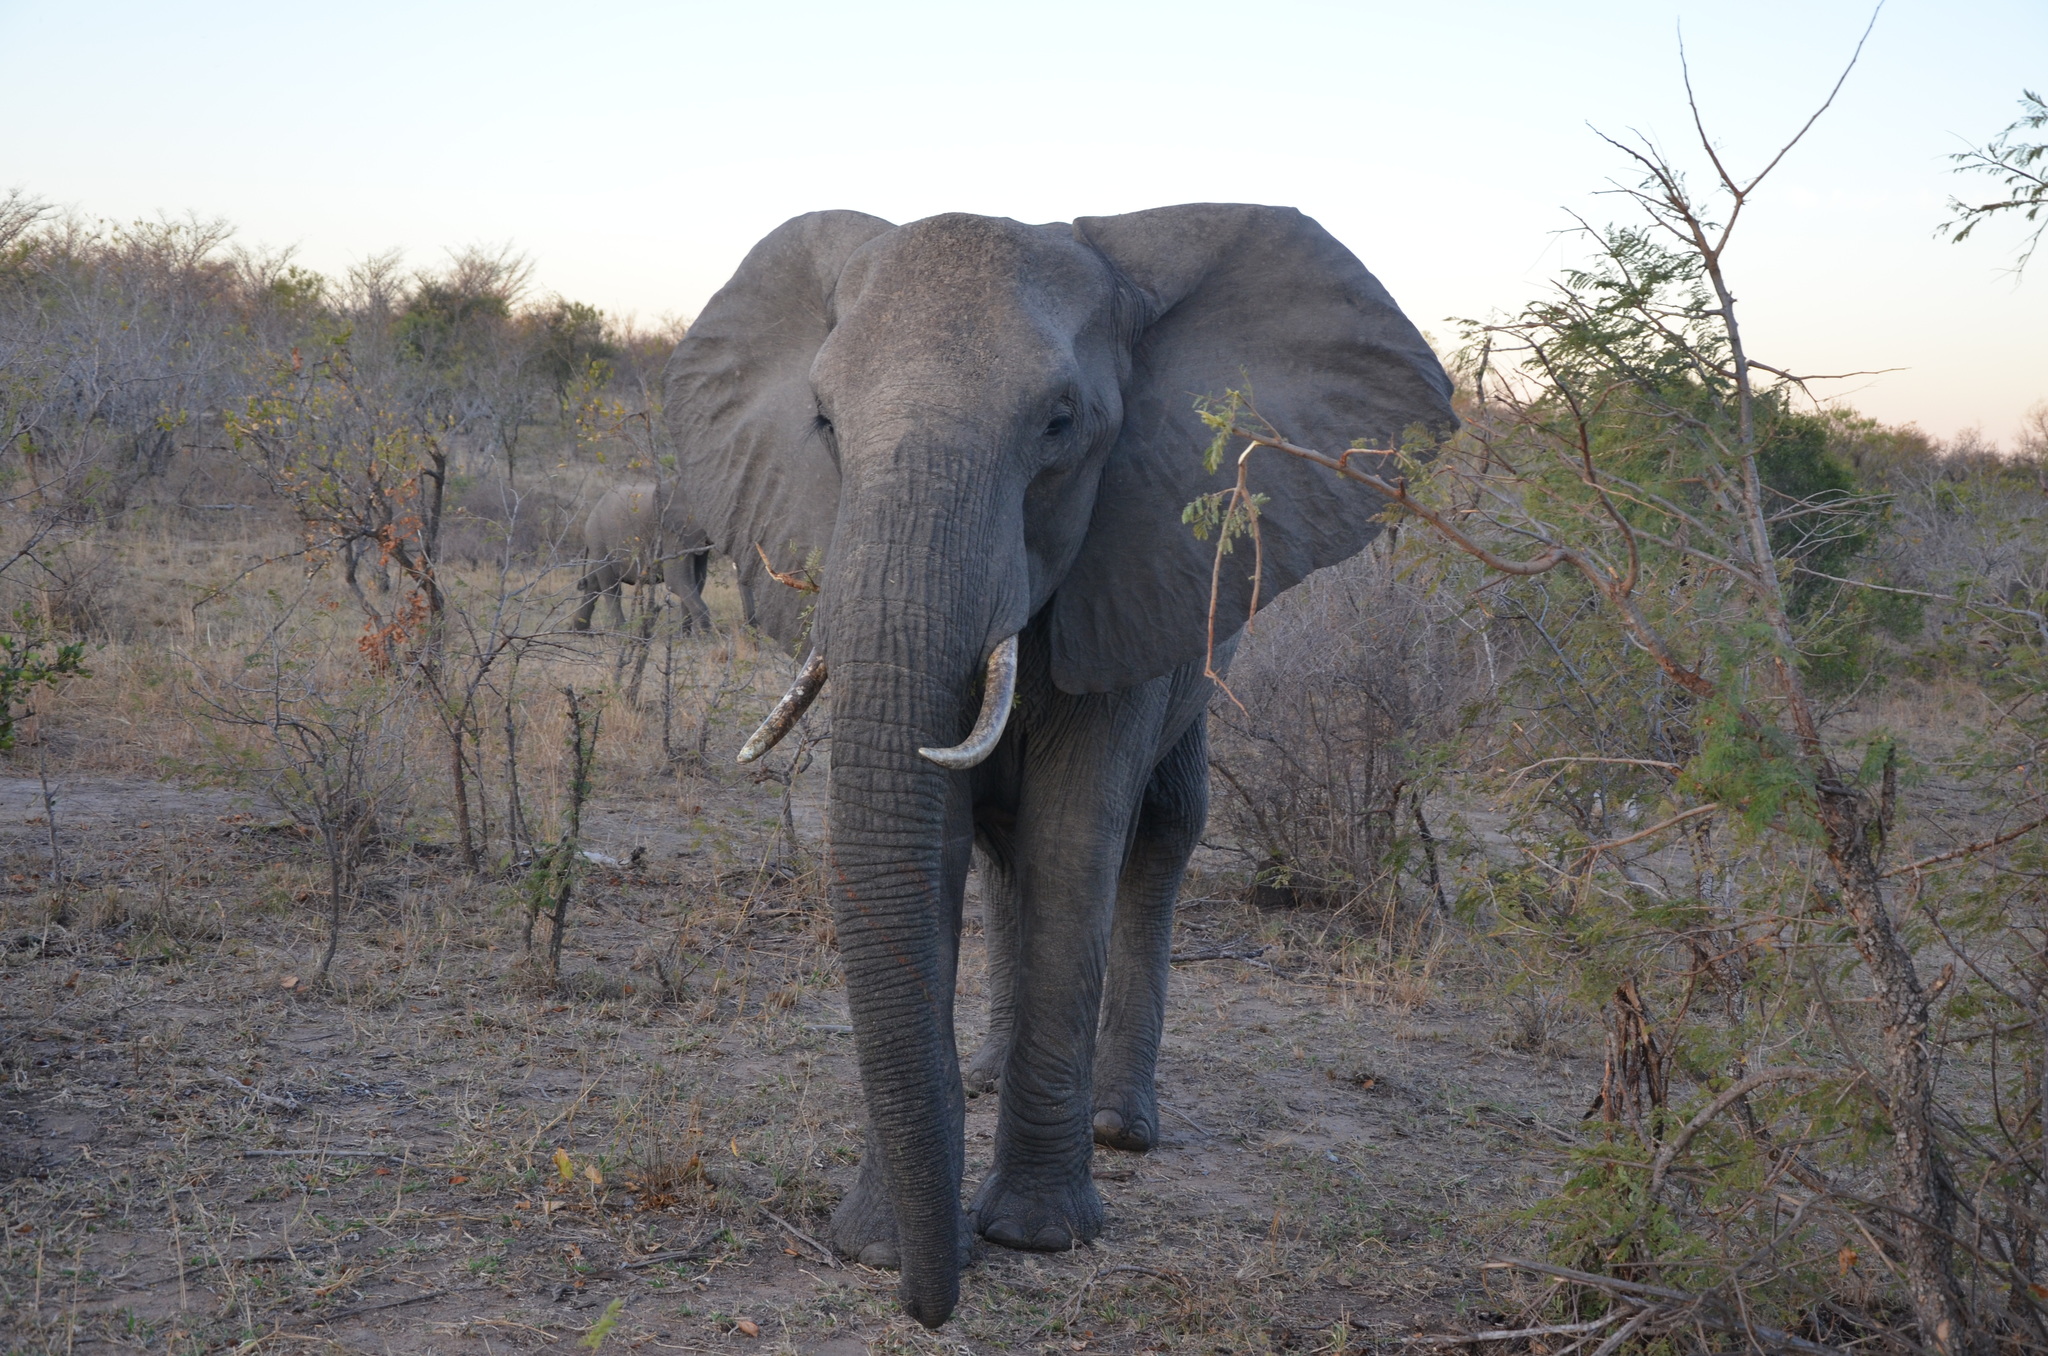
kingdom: Animalia
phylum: Chordata
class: Mammalia
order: Proboscidea
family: Elephantidae
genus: Loxodonta
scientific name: Loxodonta africana
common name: African elephant
